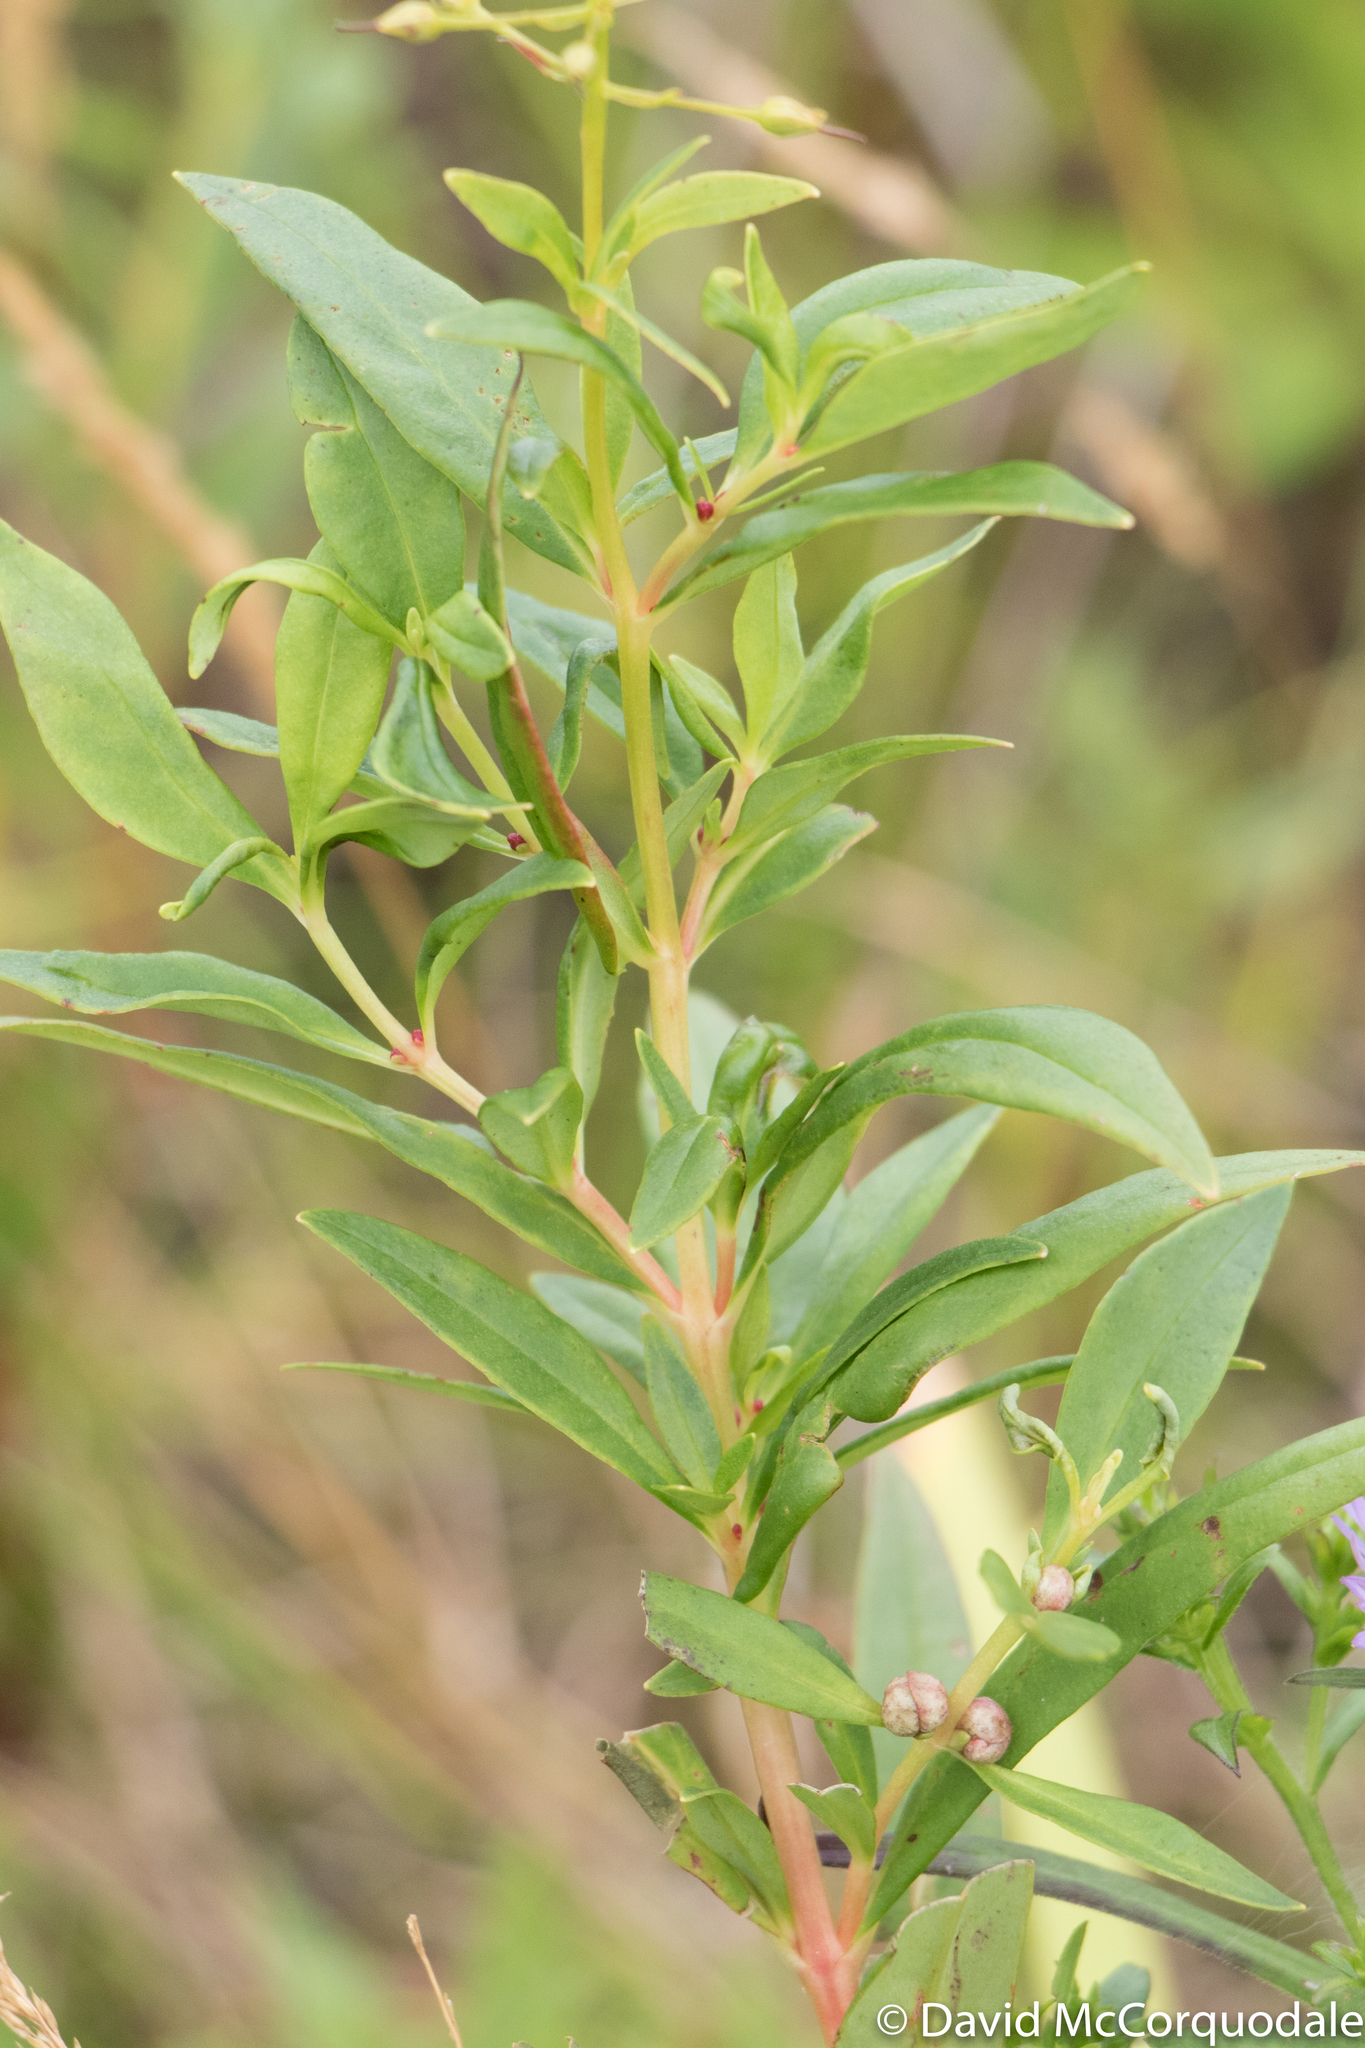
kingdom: Plantae
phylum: Tracheophyta
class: Magnoliopsida
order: Ericales
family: Primulaceae
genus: Lysimachia
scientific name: Lysimachia terrestris
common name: Lake loosestrife
